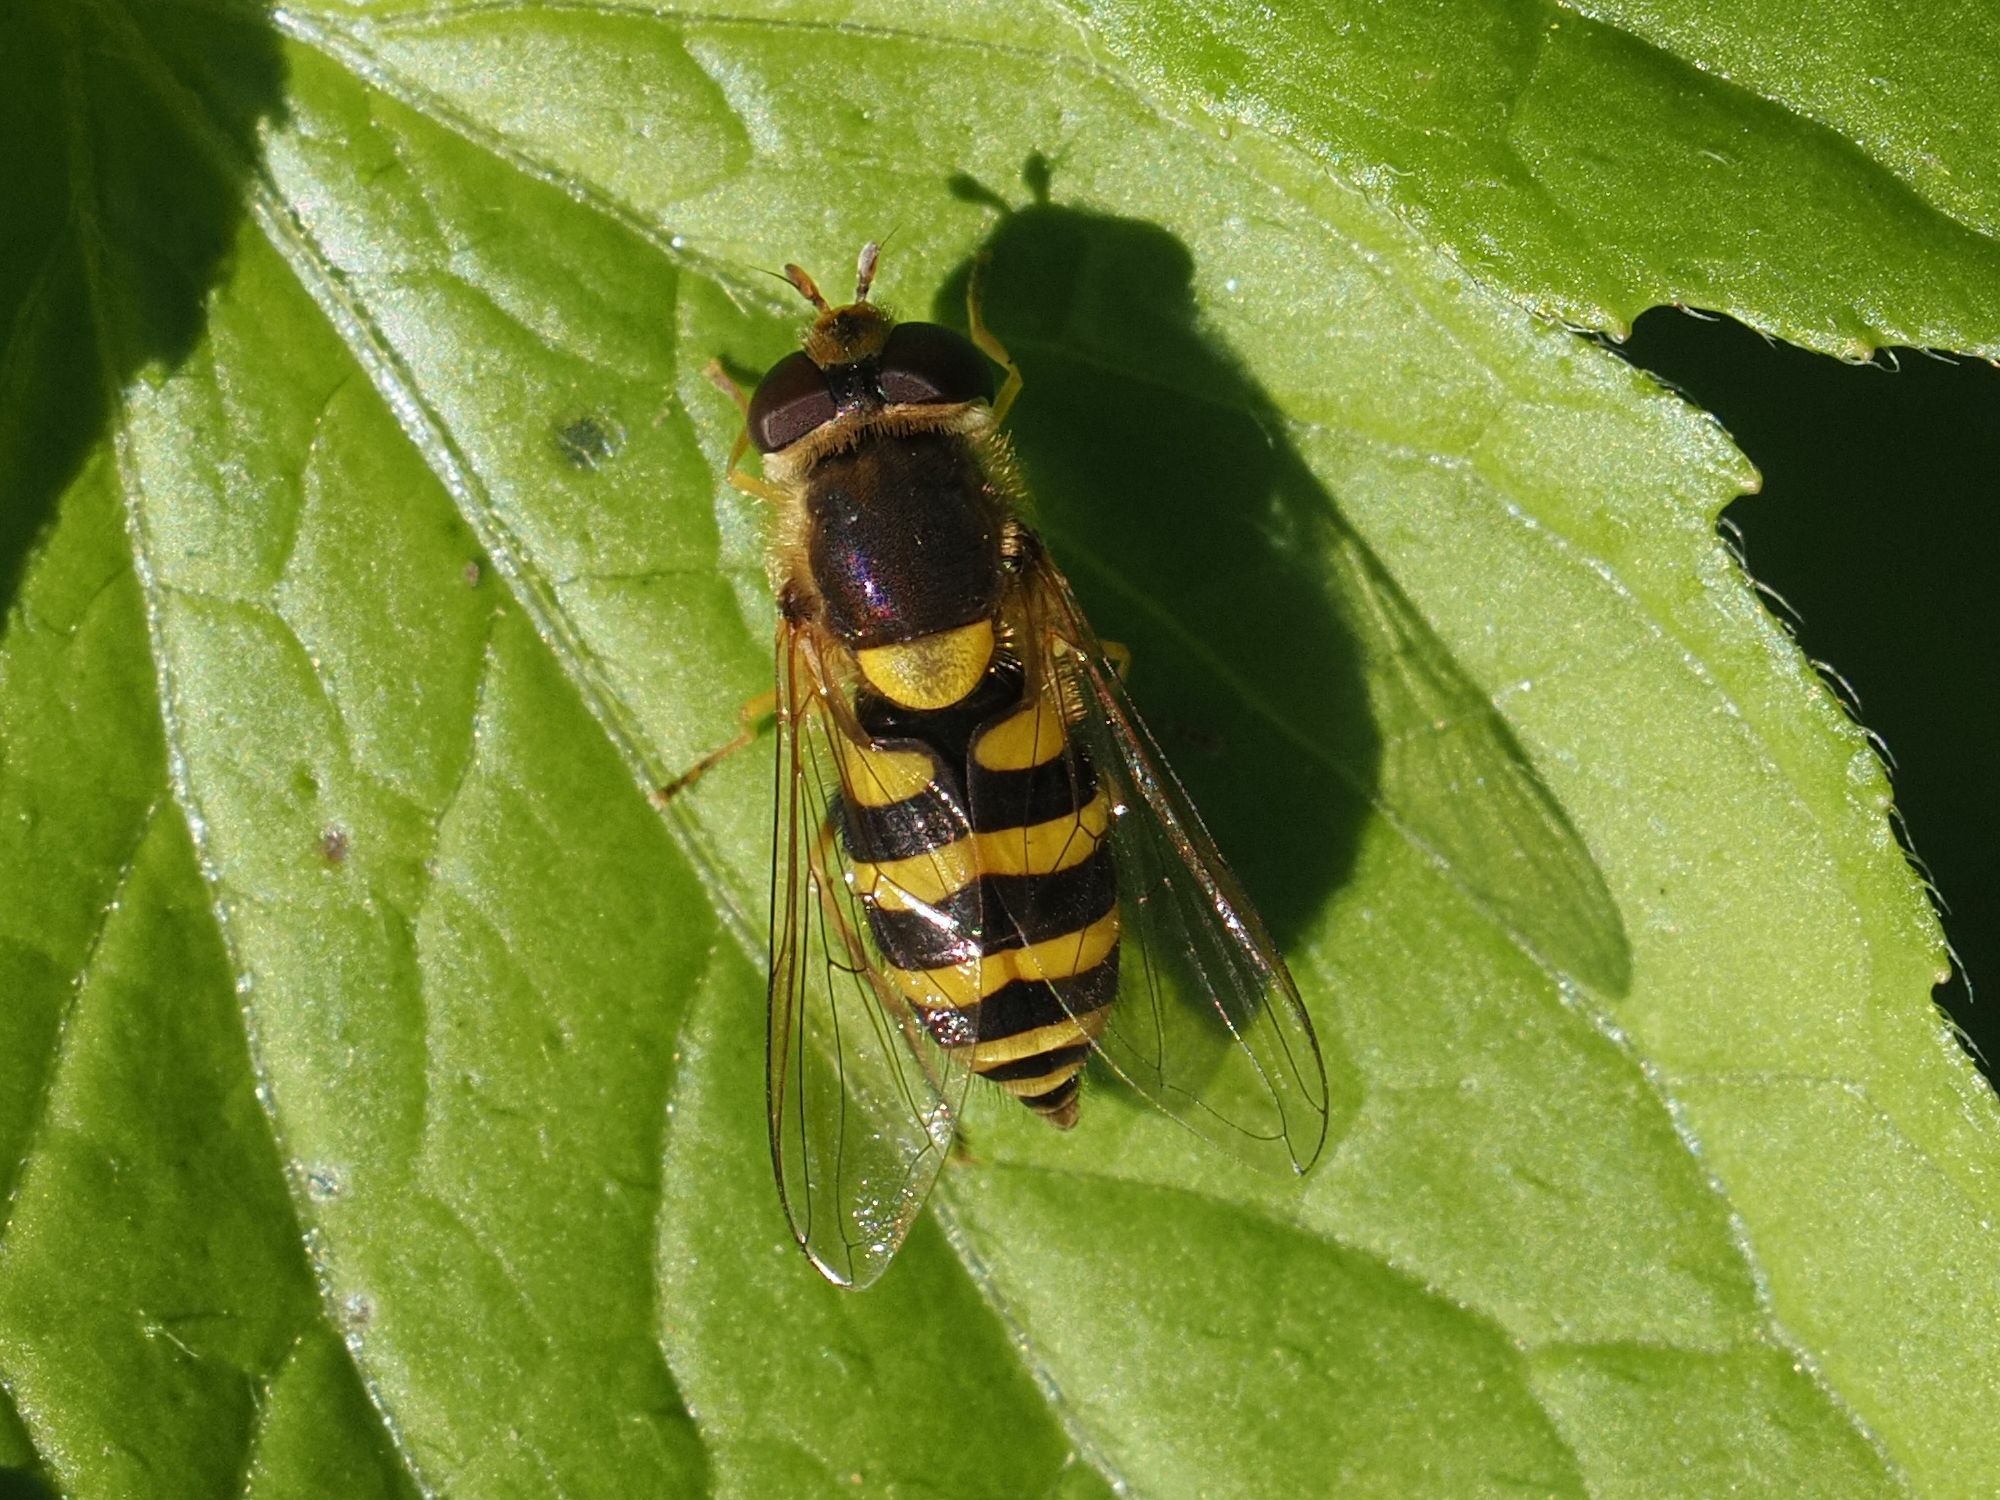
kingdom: Animalia
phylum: Arthropoda
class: Insecta
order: Diptera
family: Syrphidae
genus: Syrphus
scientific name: Syrphus
